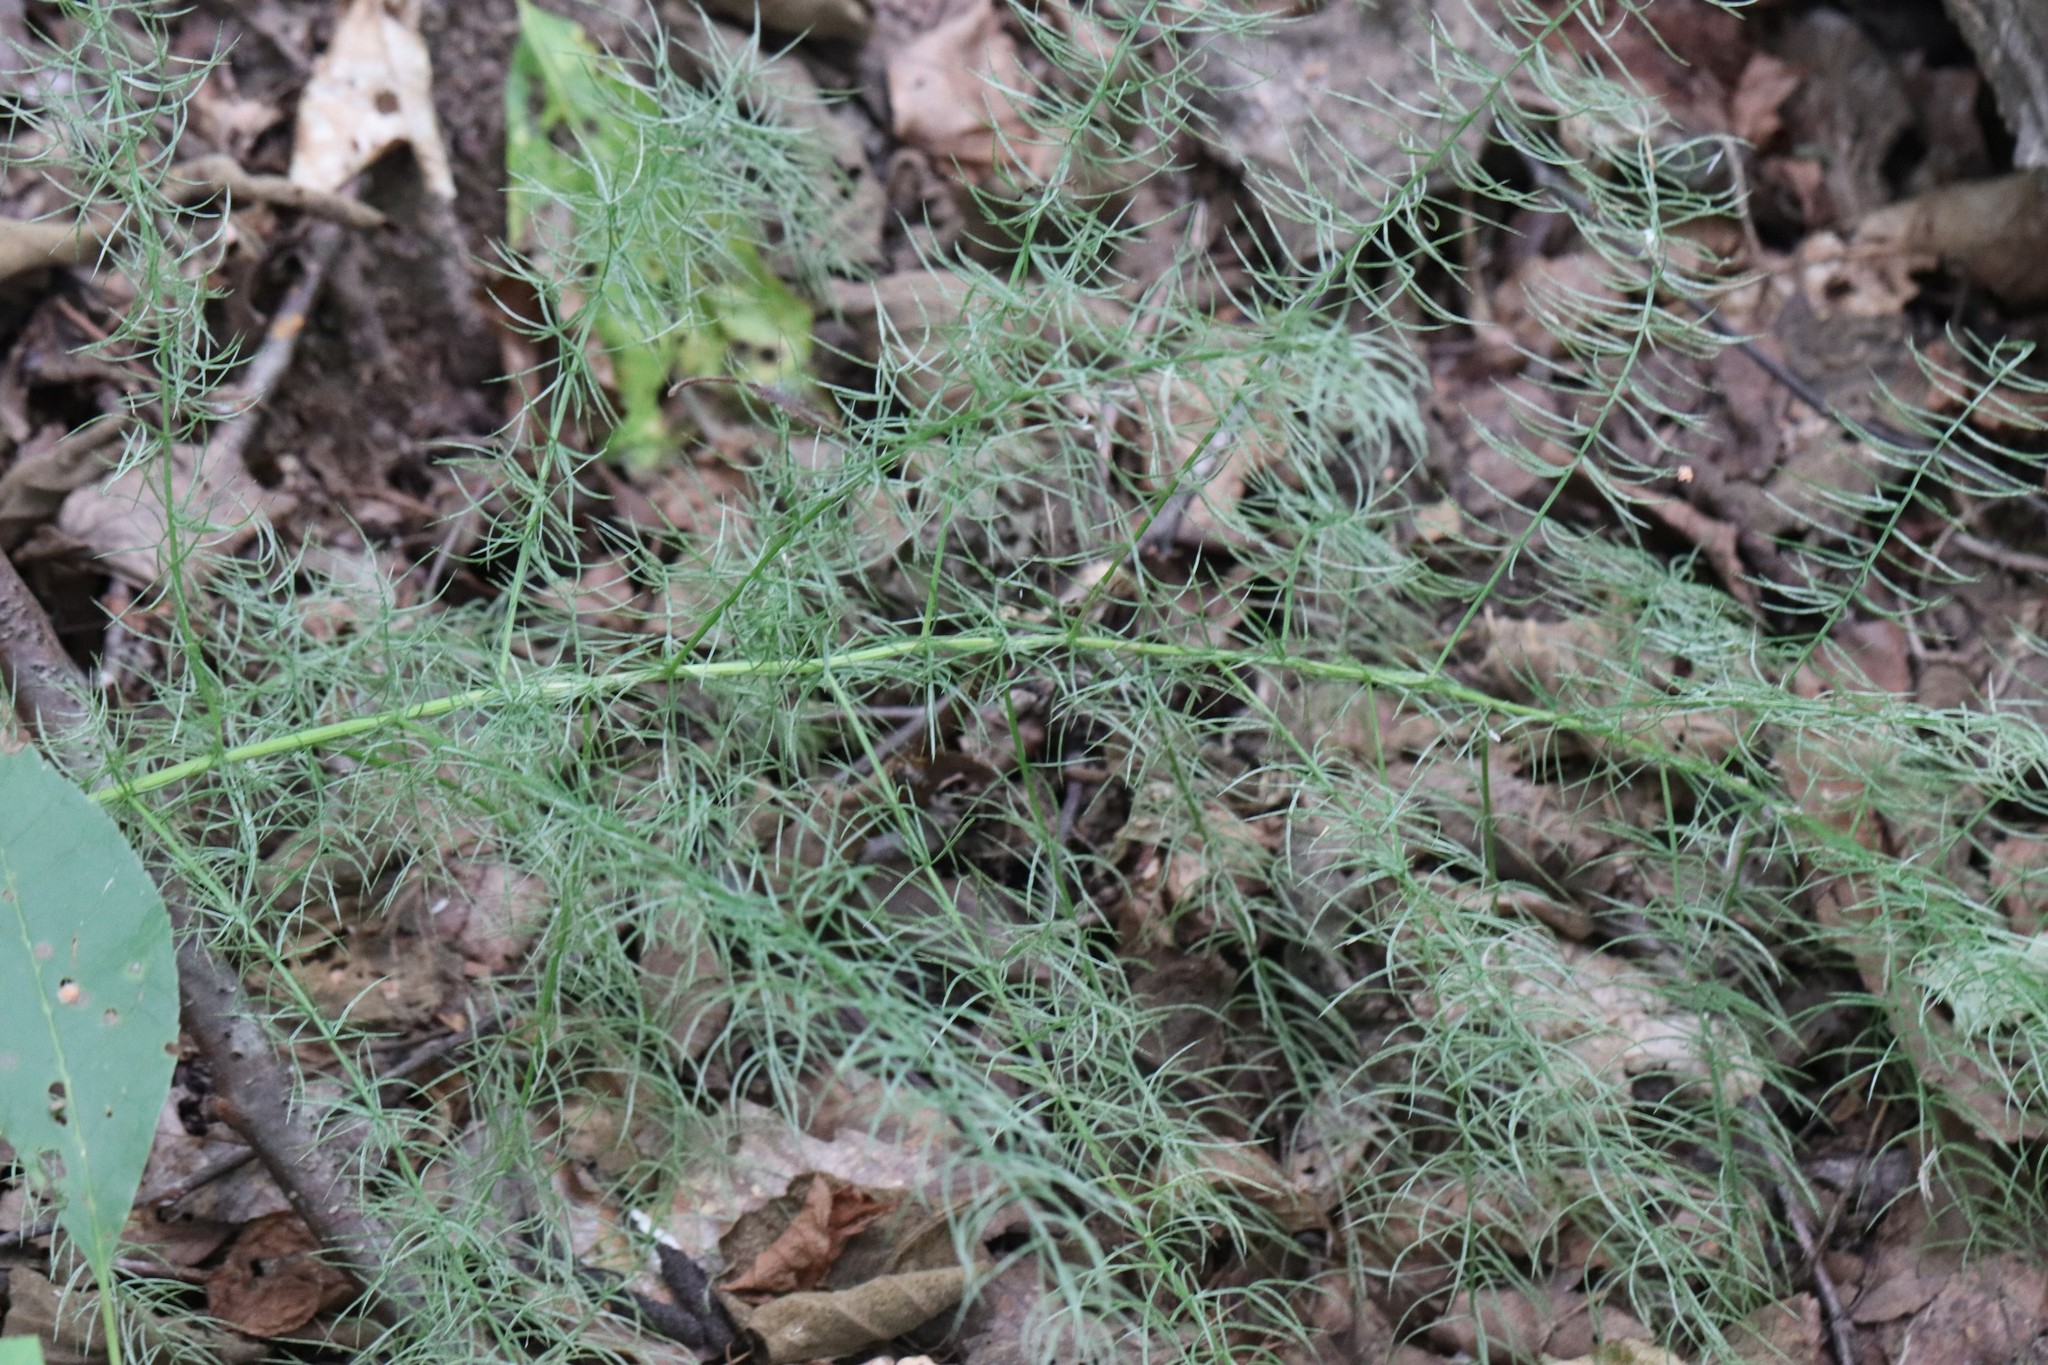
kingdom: Plantae
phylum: Tracheophyta
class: Liliopsida
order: Asparagales
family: Asparagaceae
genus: Asparagus
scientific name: Asparagus schoberioides
